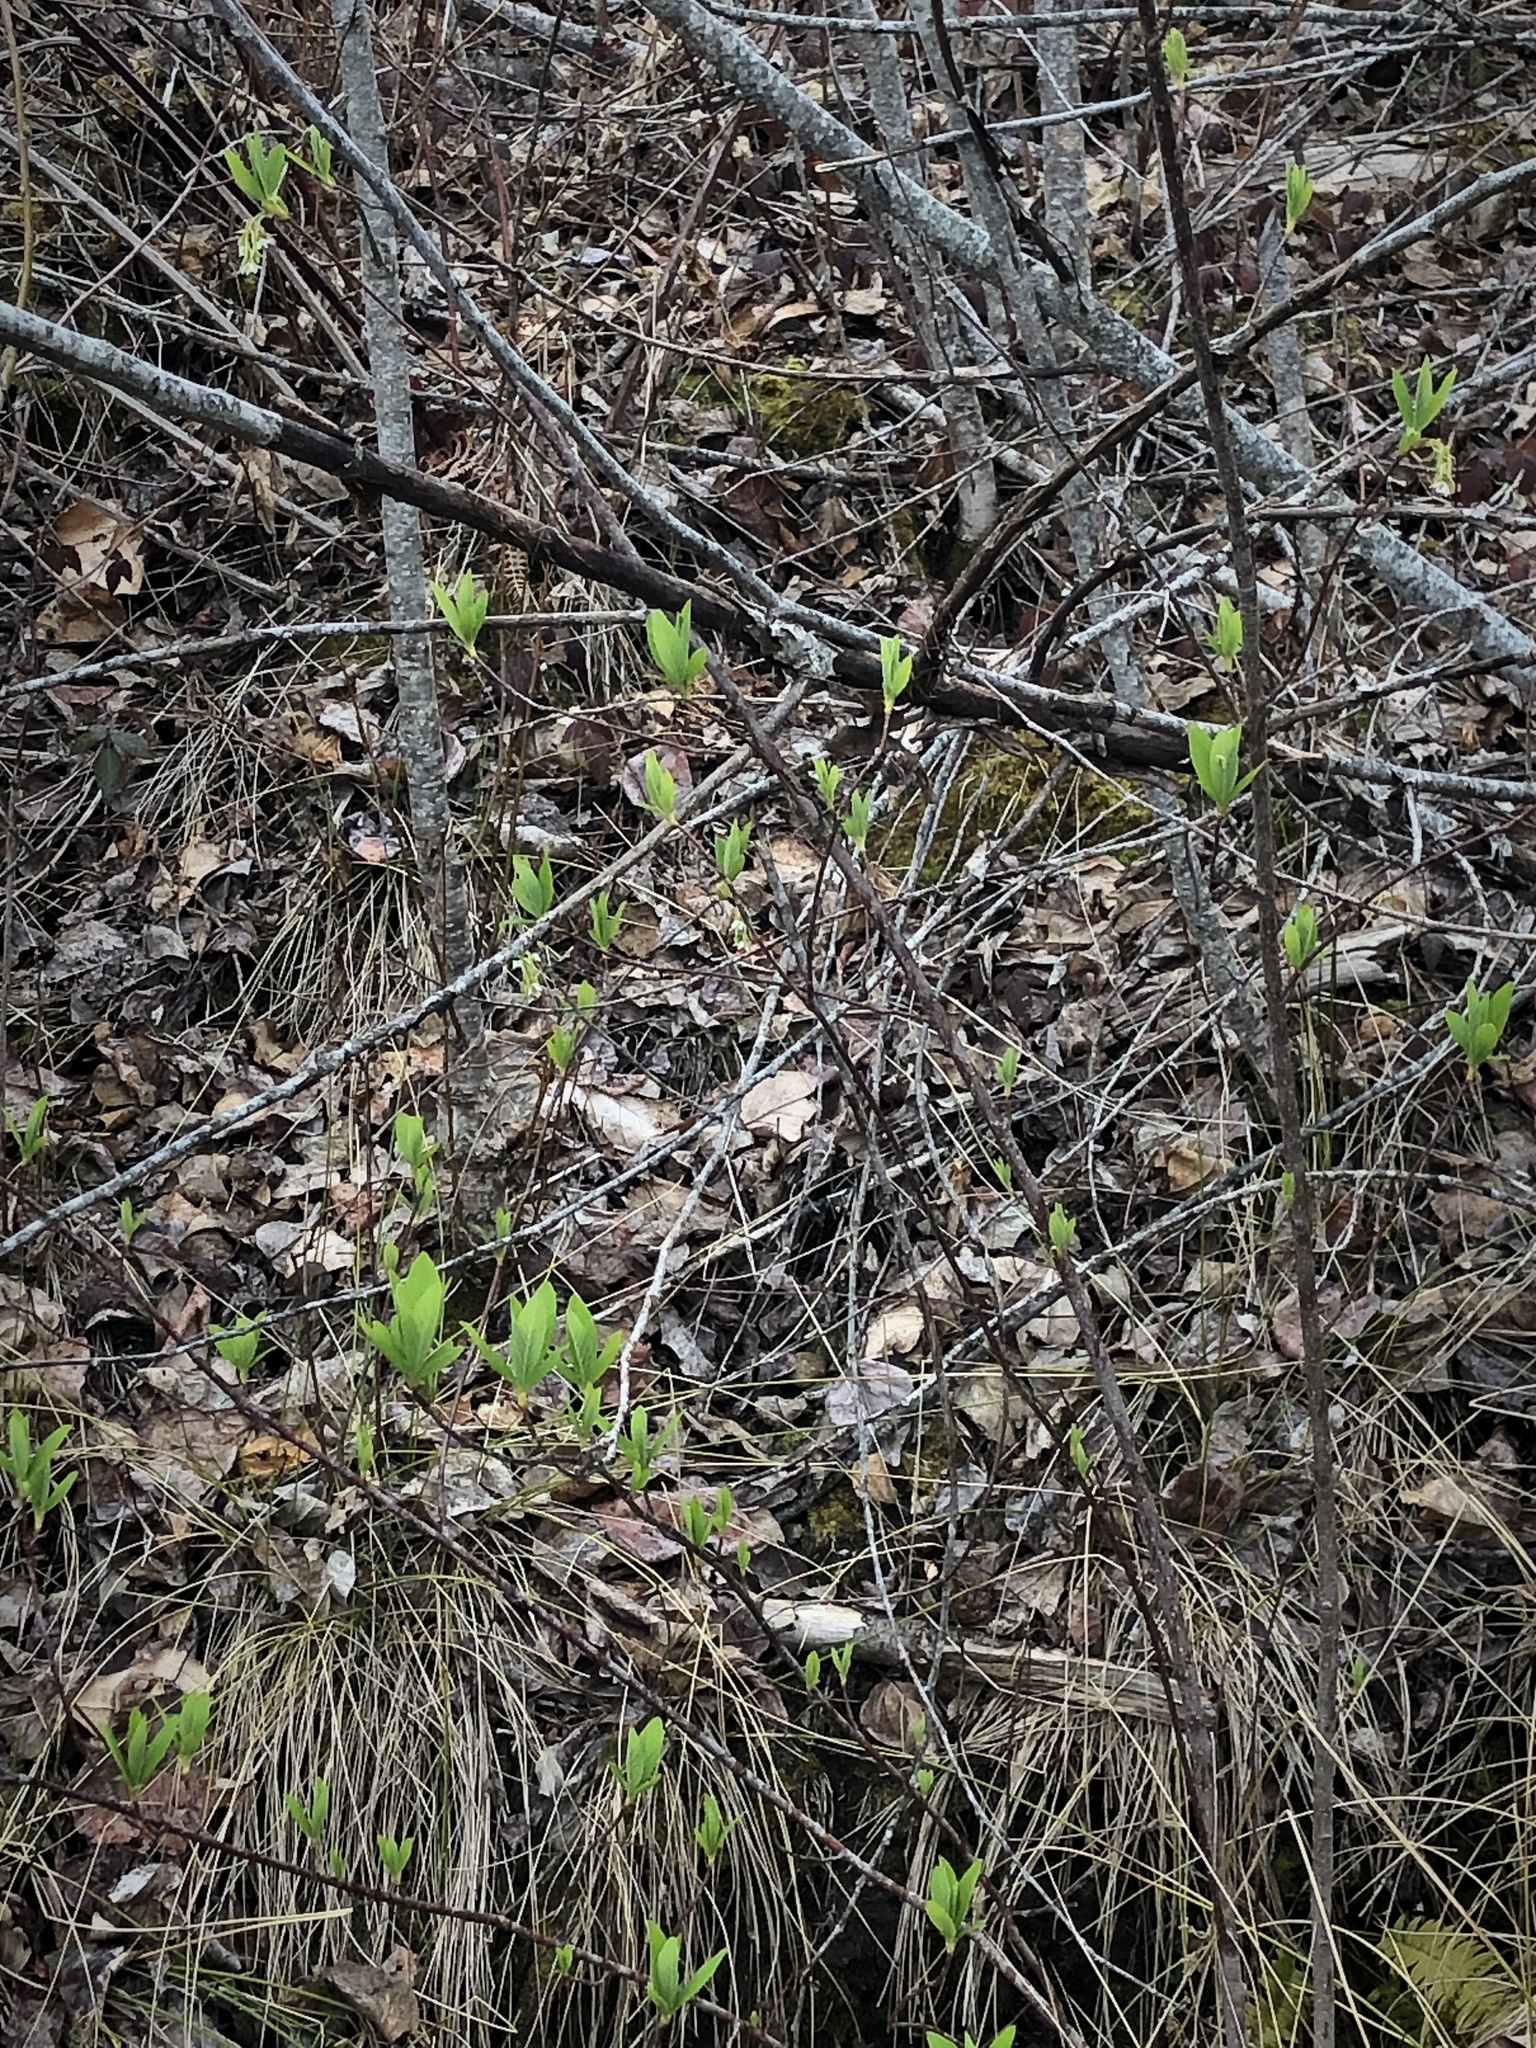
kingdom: Plantae
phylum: Tracheophyta
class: Magnoliopsida
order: Rosales
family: Rosaceae
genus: Oemleria
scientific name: Oemleria cerasiformis
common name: Osoberry
